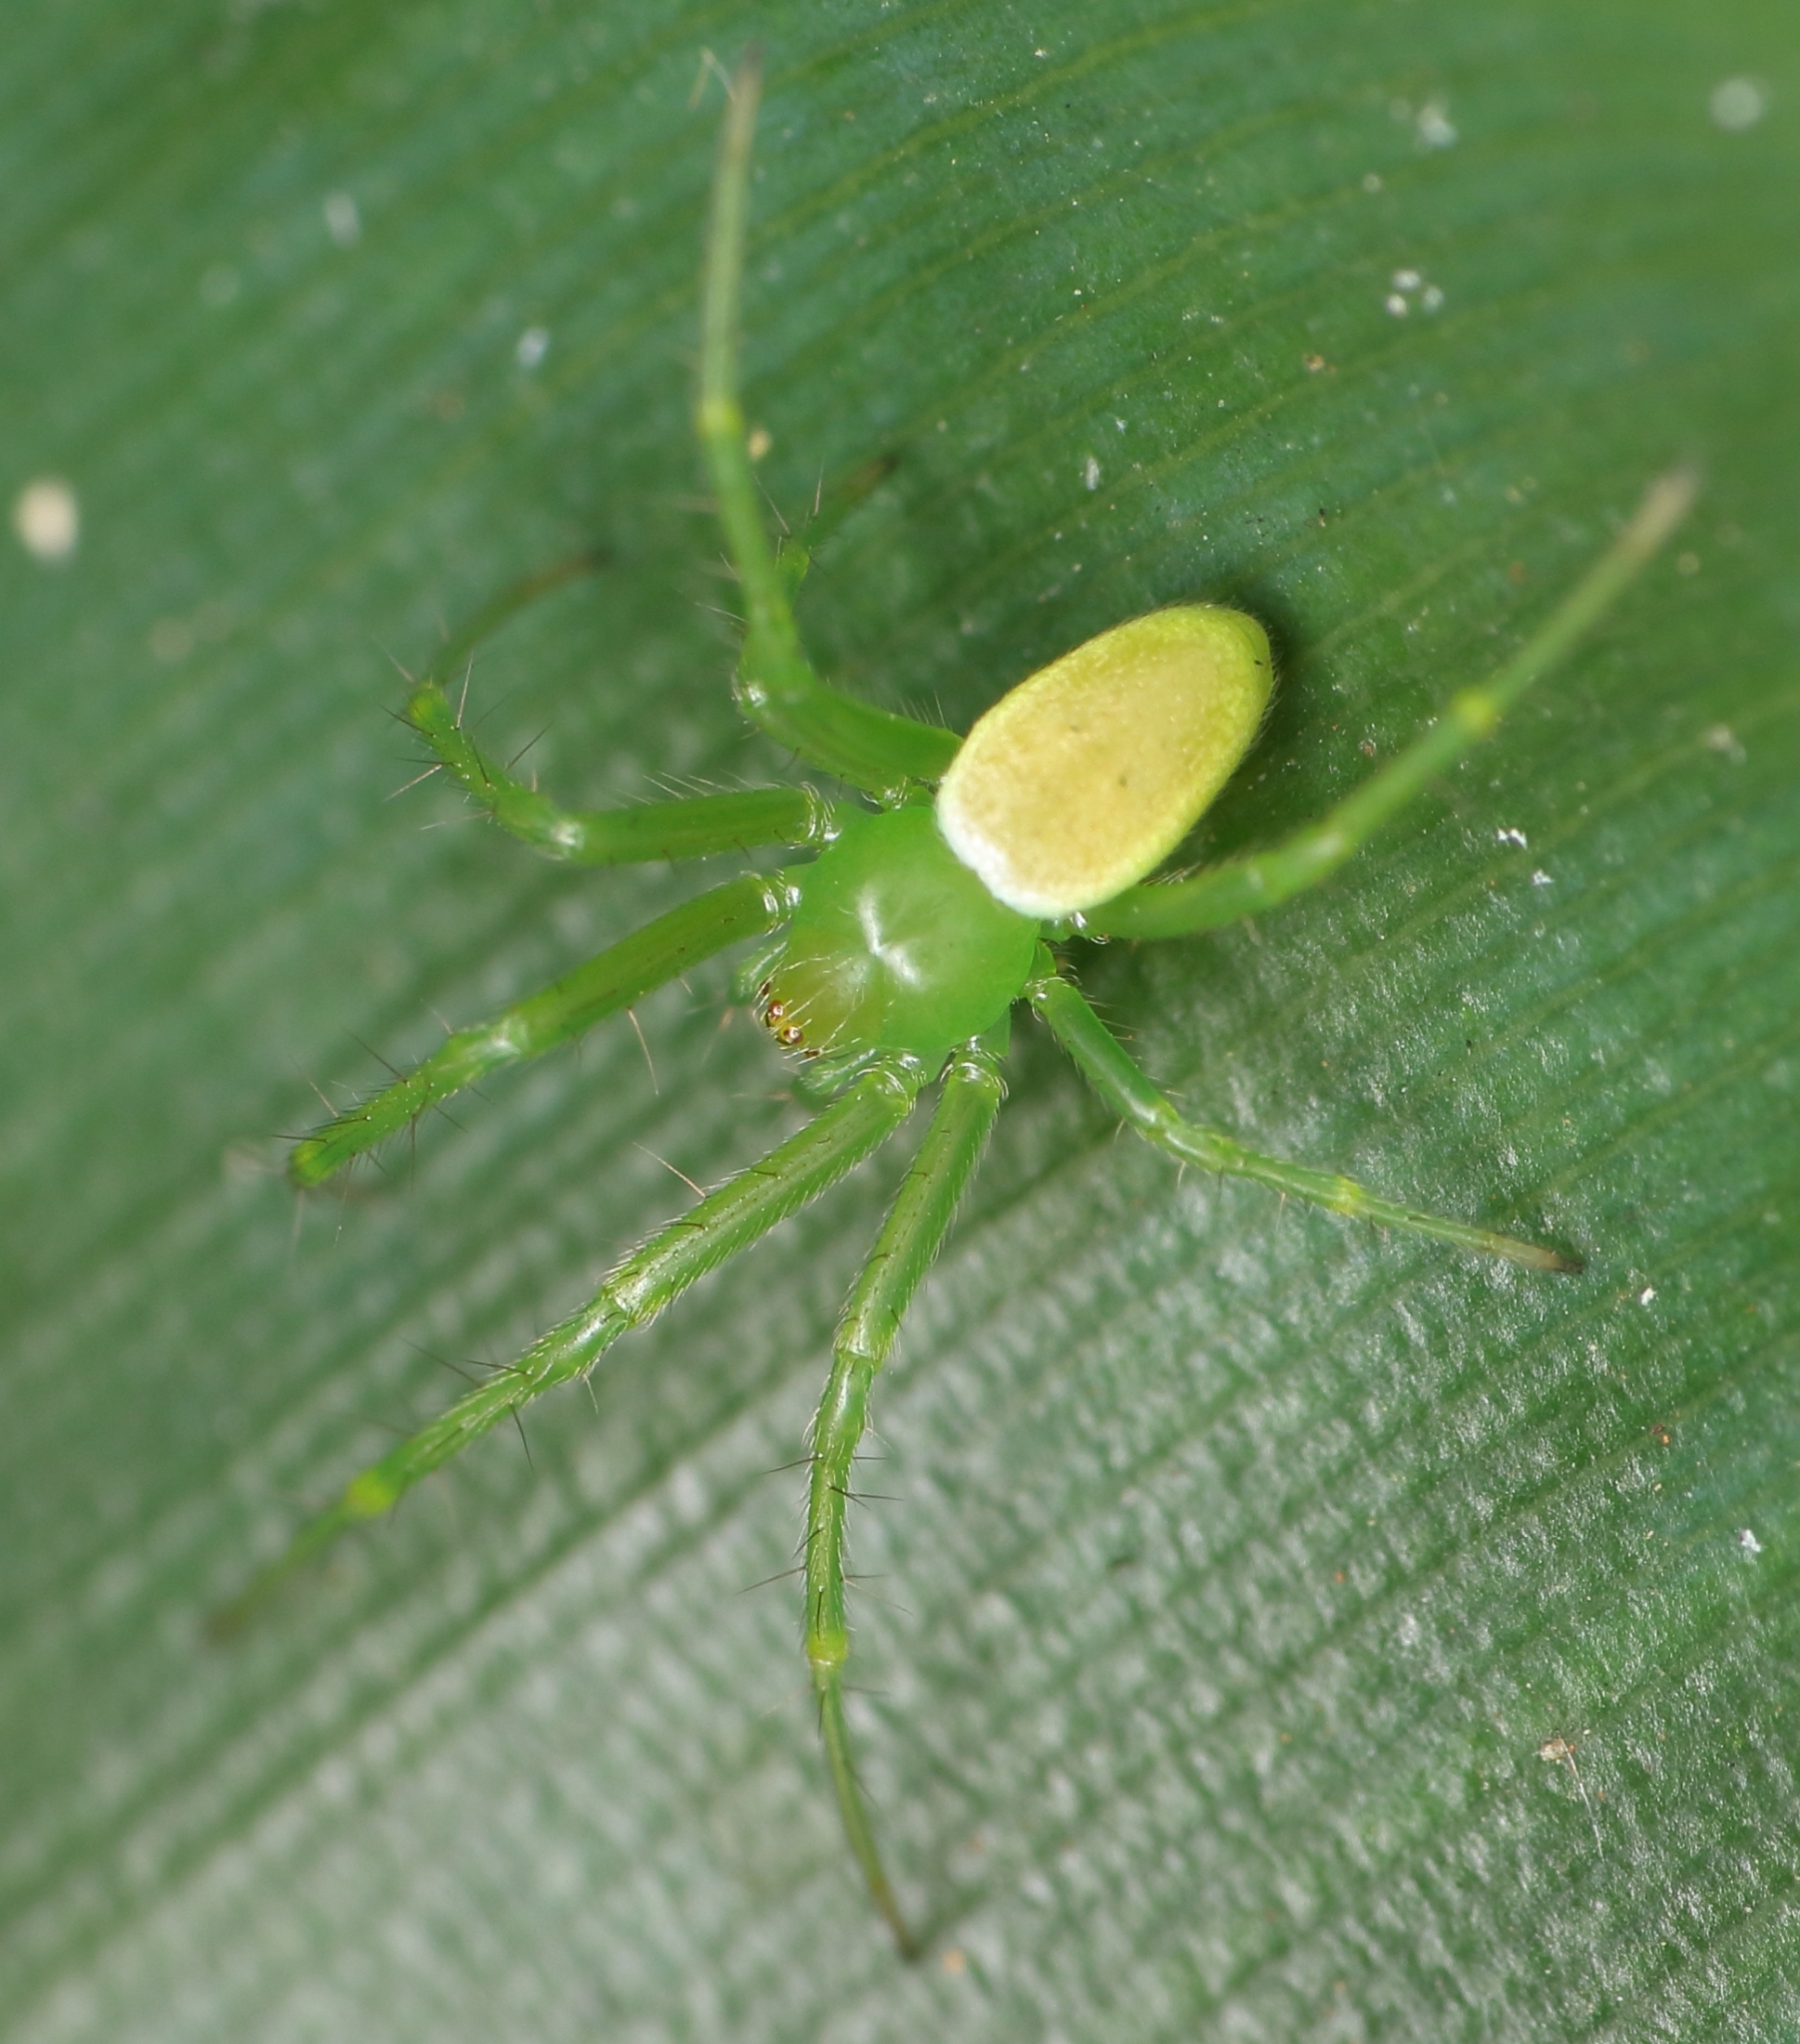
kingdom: Animalia
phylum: Arthropoda
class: Arachnida
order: Araneae
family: Araneidae
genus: Prasonica
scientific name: Prasonica albolimbata
